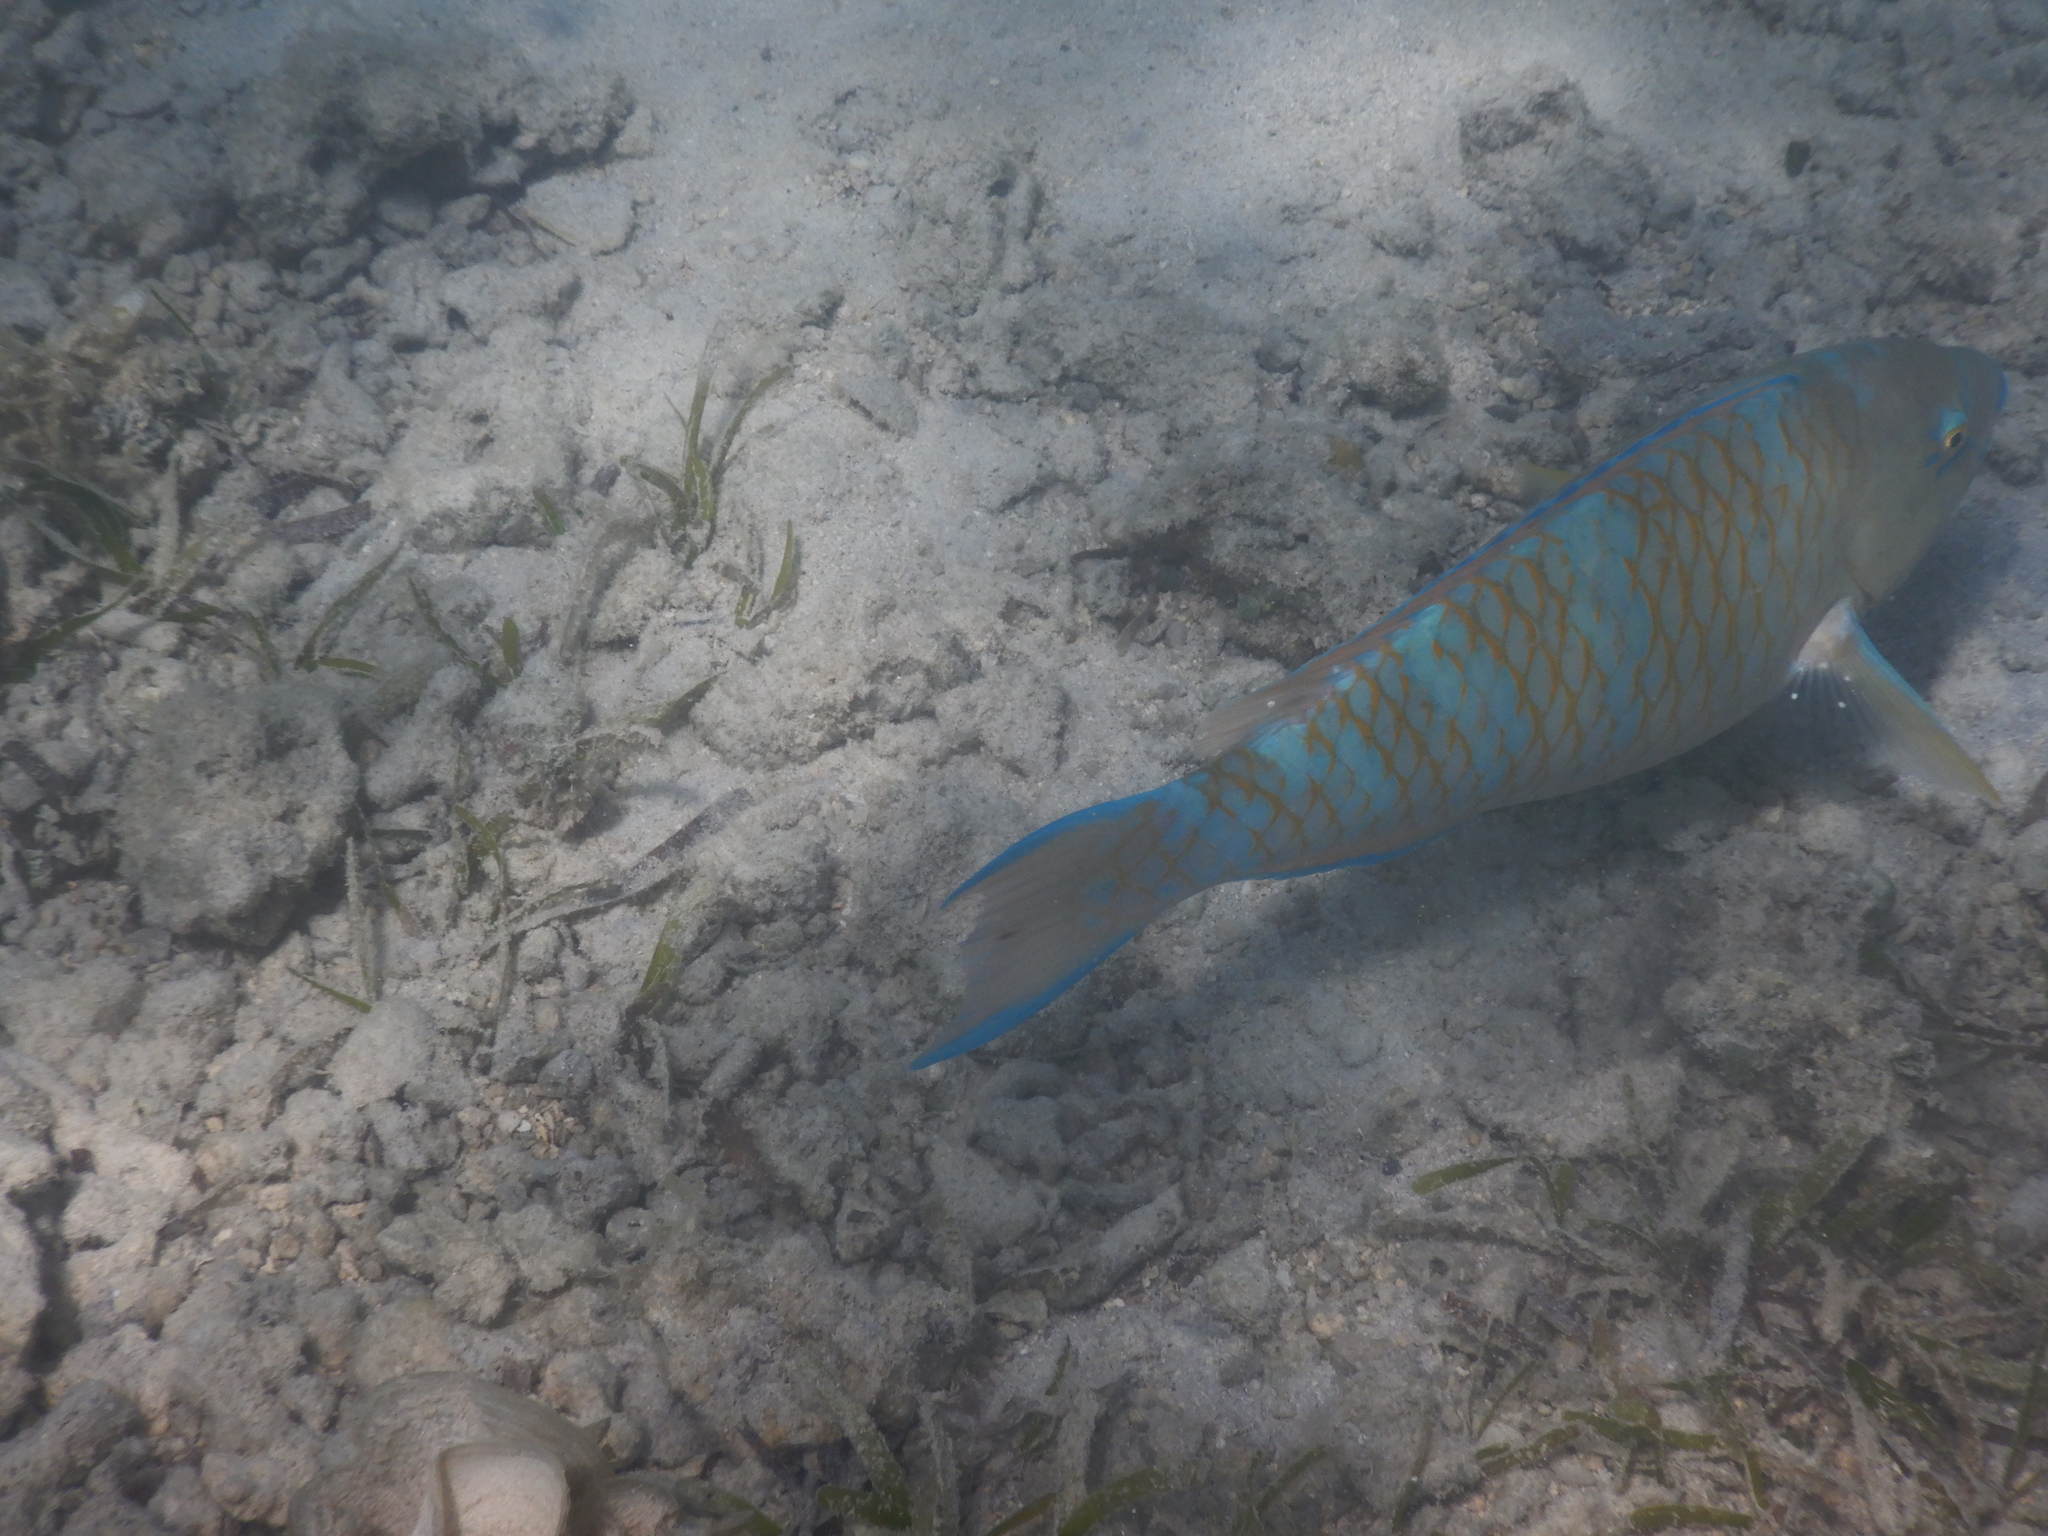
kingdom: Animalia
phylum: Chordata
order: Perciformes
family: Scaridae
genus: Scarus
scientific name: Scarus ghobban
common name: Blue-barred parrotfish
